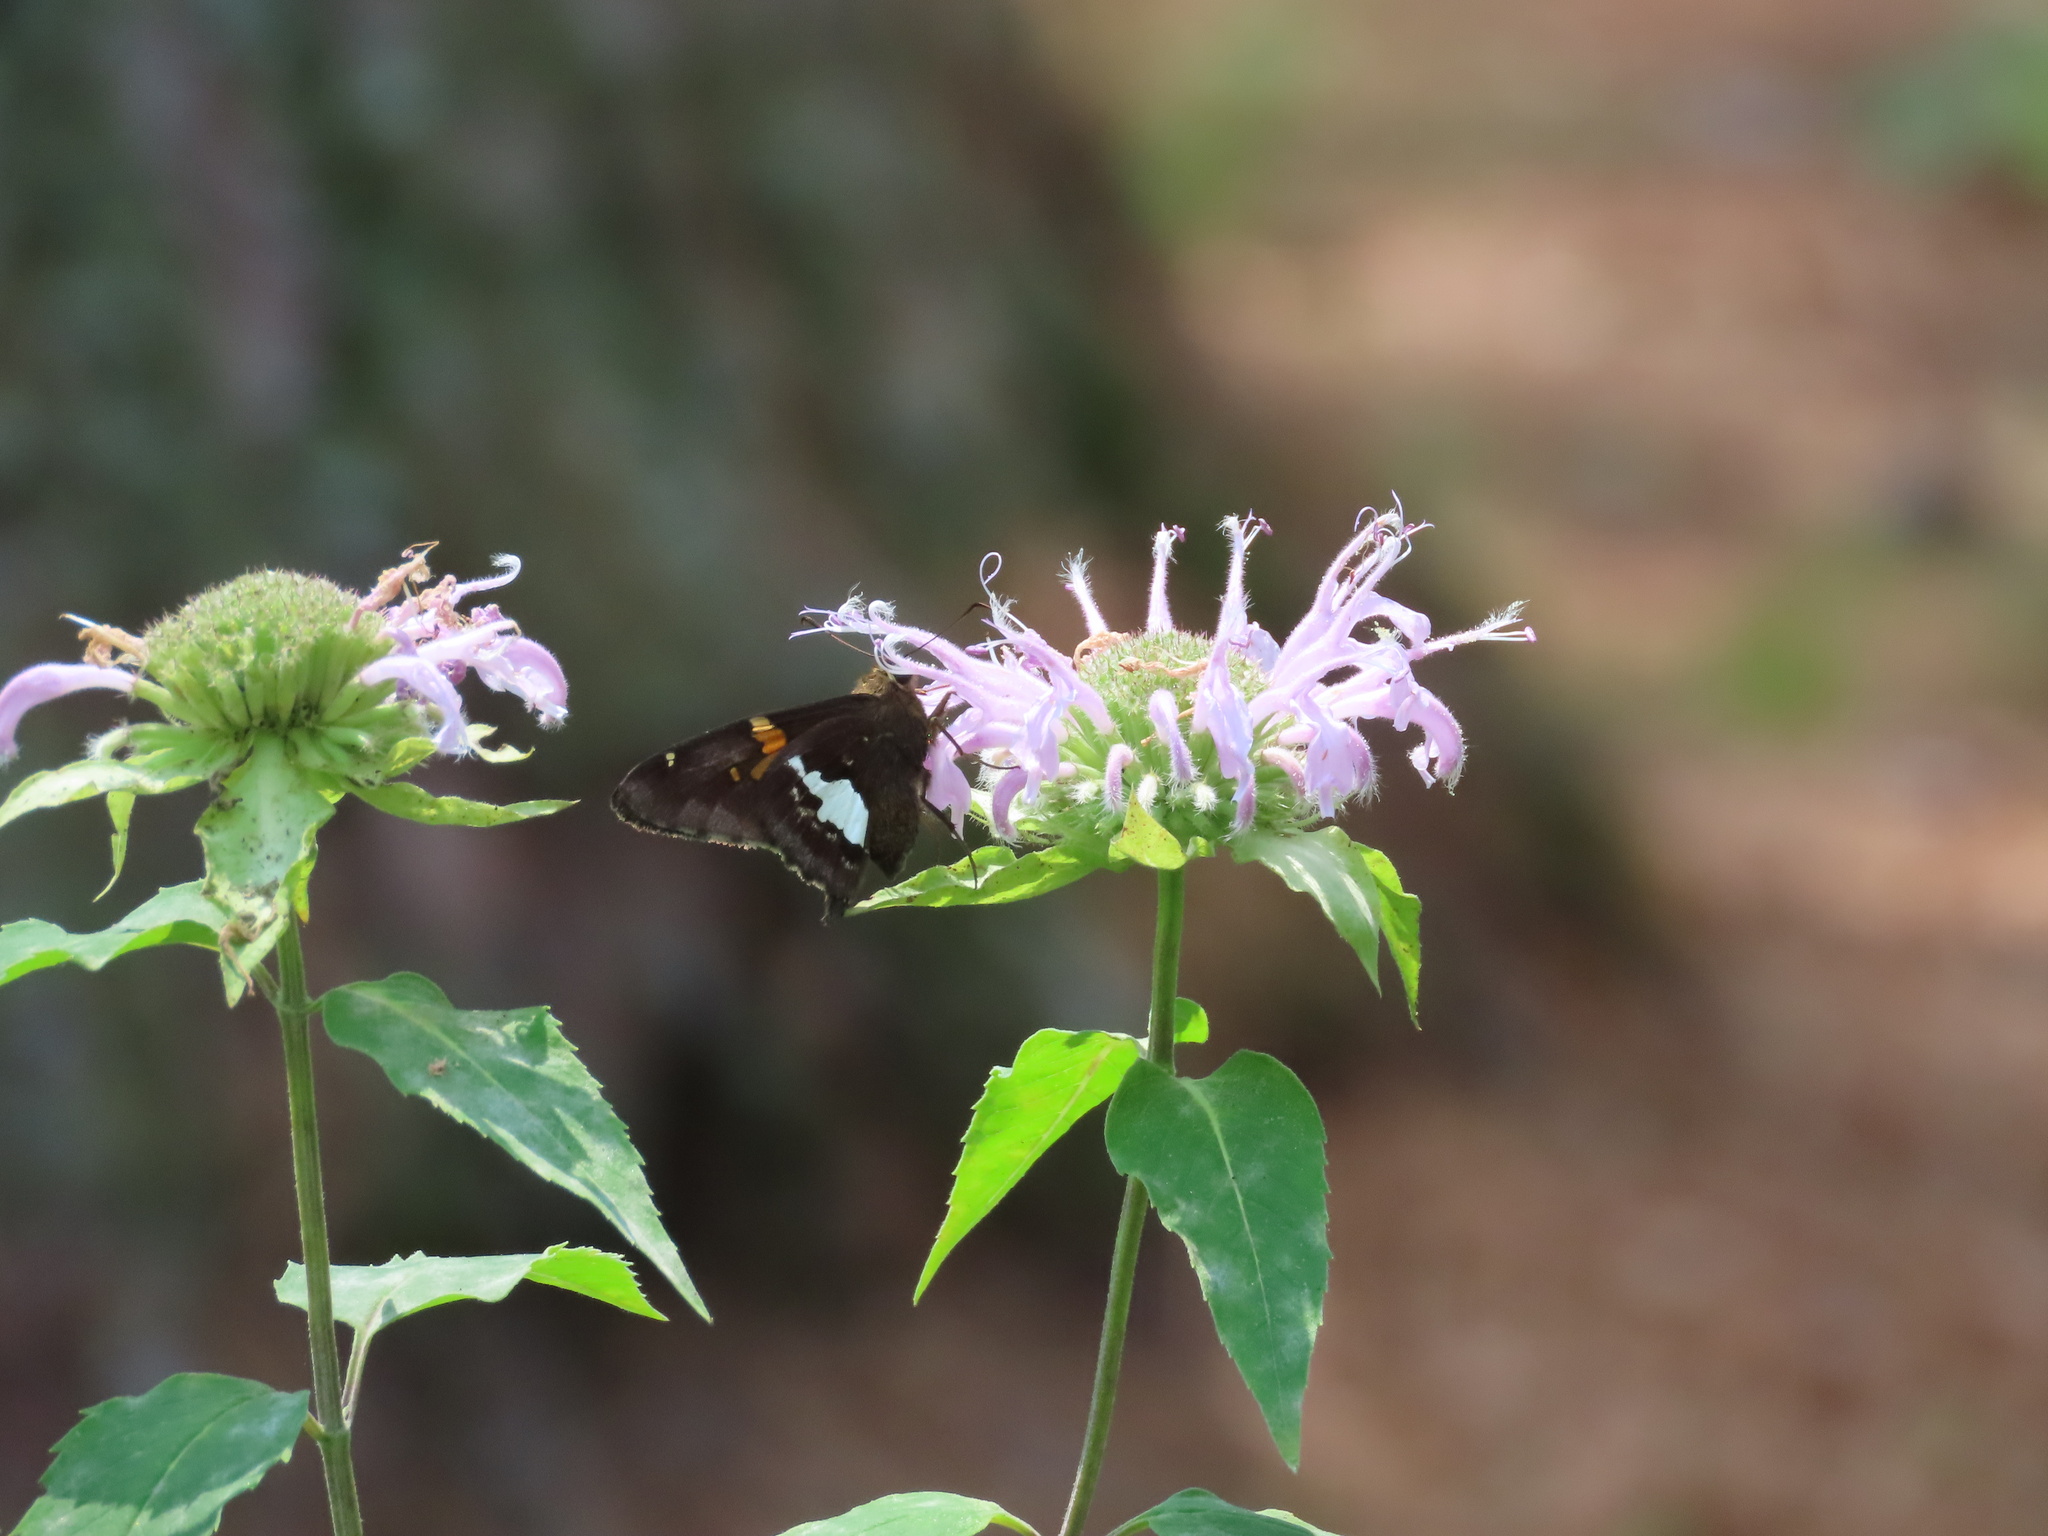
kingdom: Animalia
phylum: Arthropoda
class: Insecta
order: Lepidoptera
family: Hesperiidae
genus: Epargyreus
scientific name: Epargyreus clarus
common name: Silver-spotted skipper
